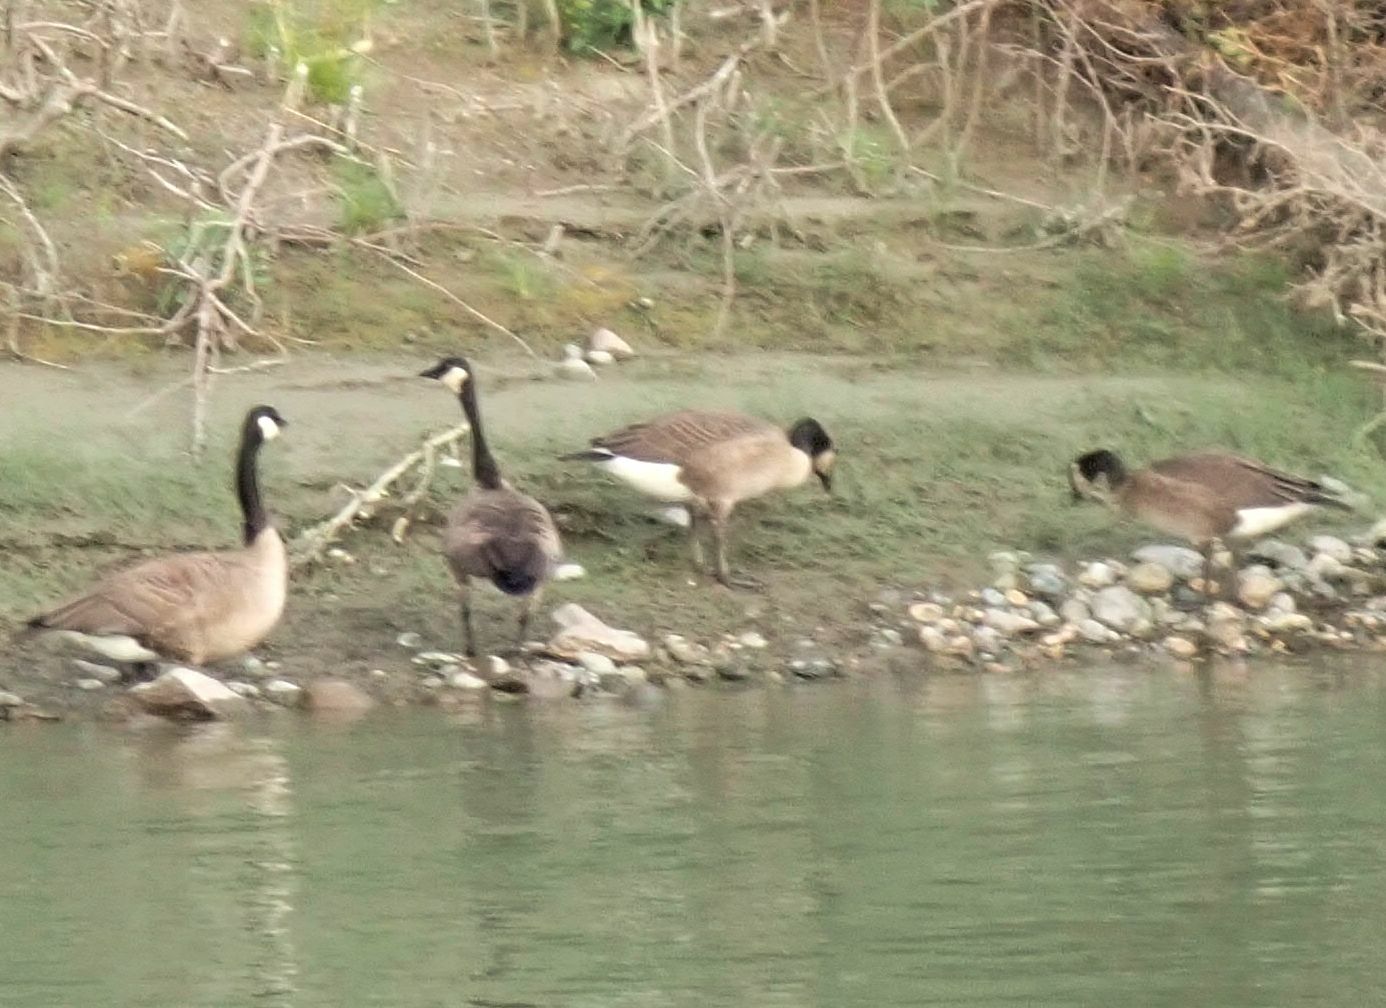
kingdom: Animalia
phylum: Chordata
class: Aves
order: Anseriformes
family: Anatidae
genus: Branta
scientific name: Branta canadensis
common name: Canada goose
